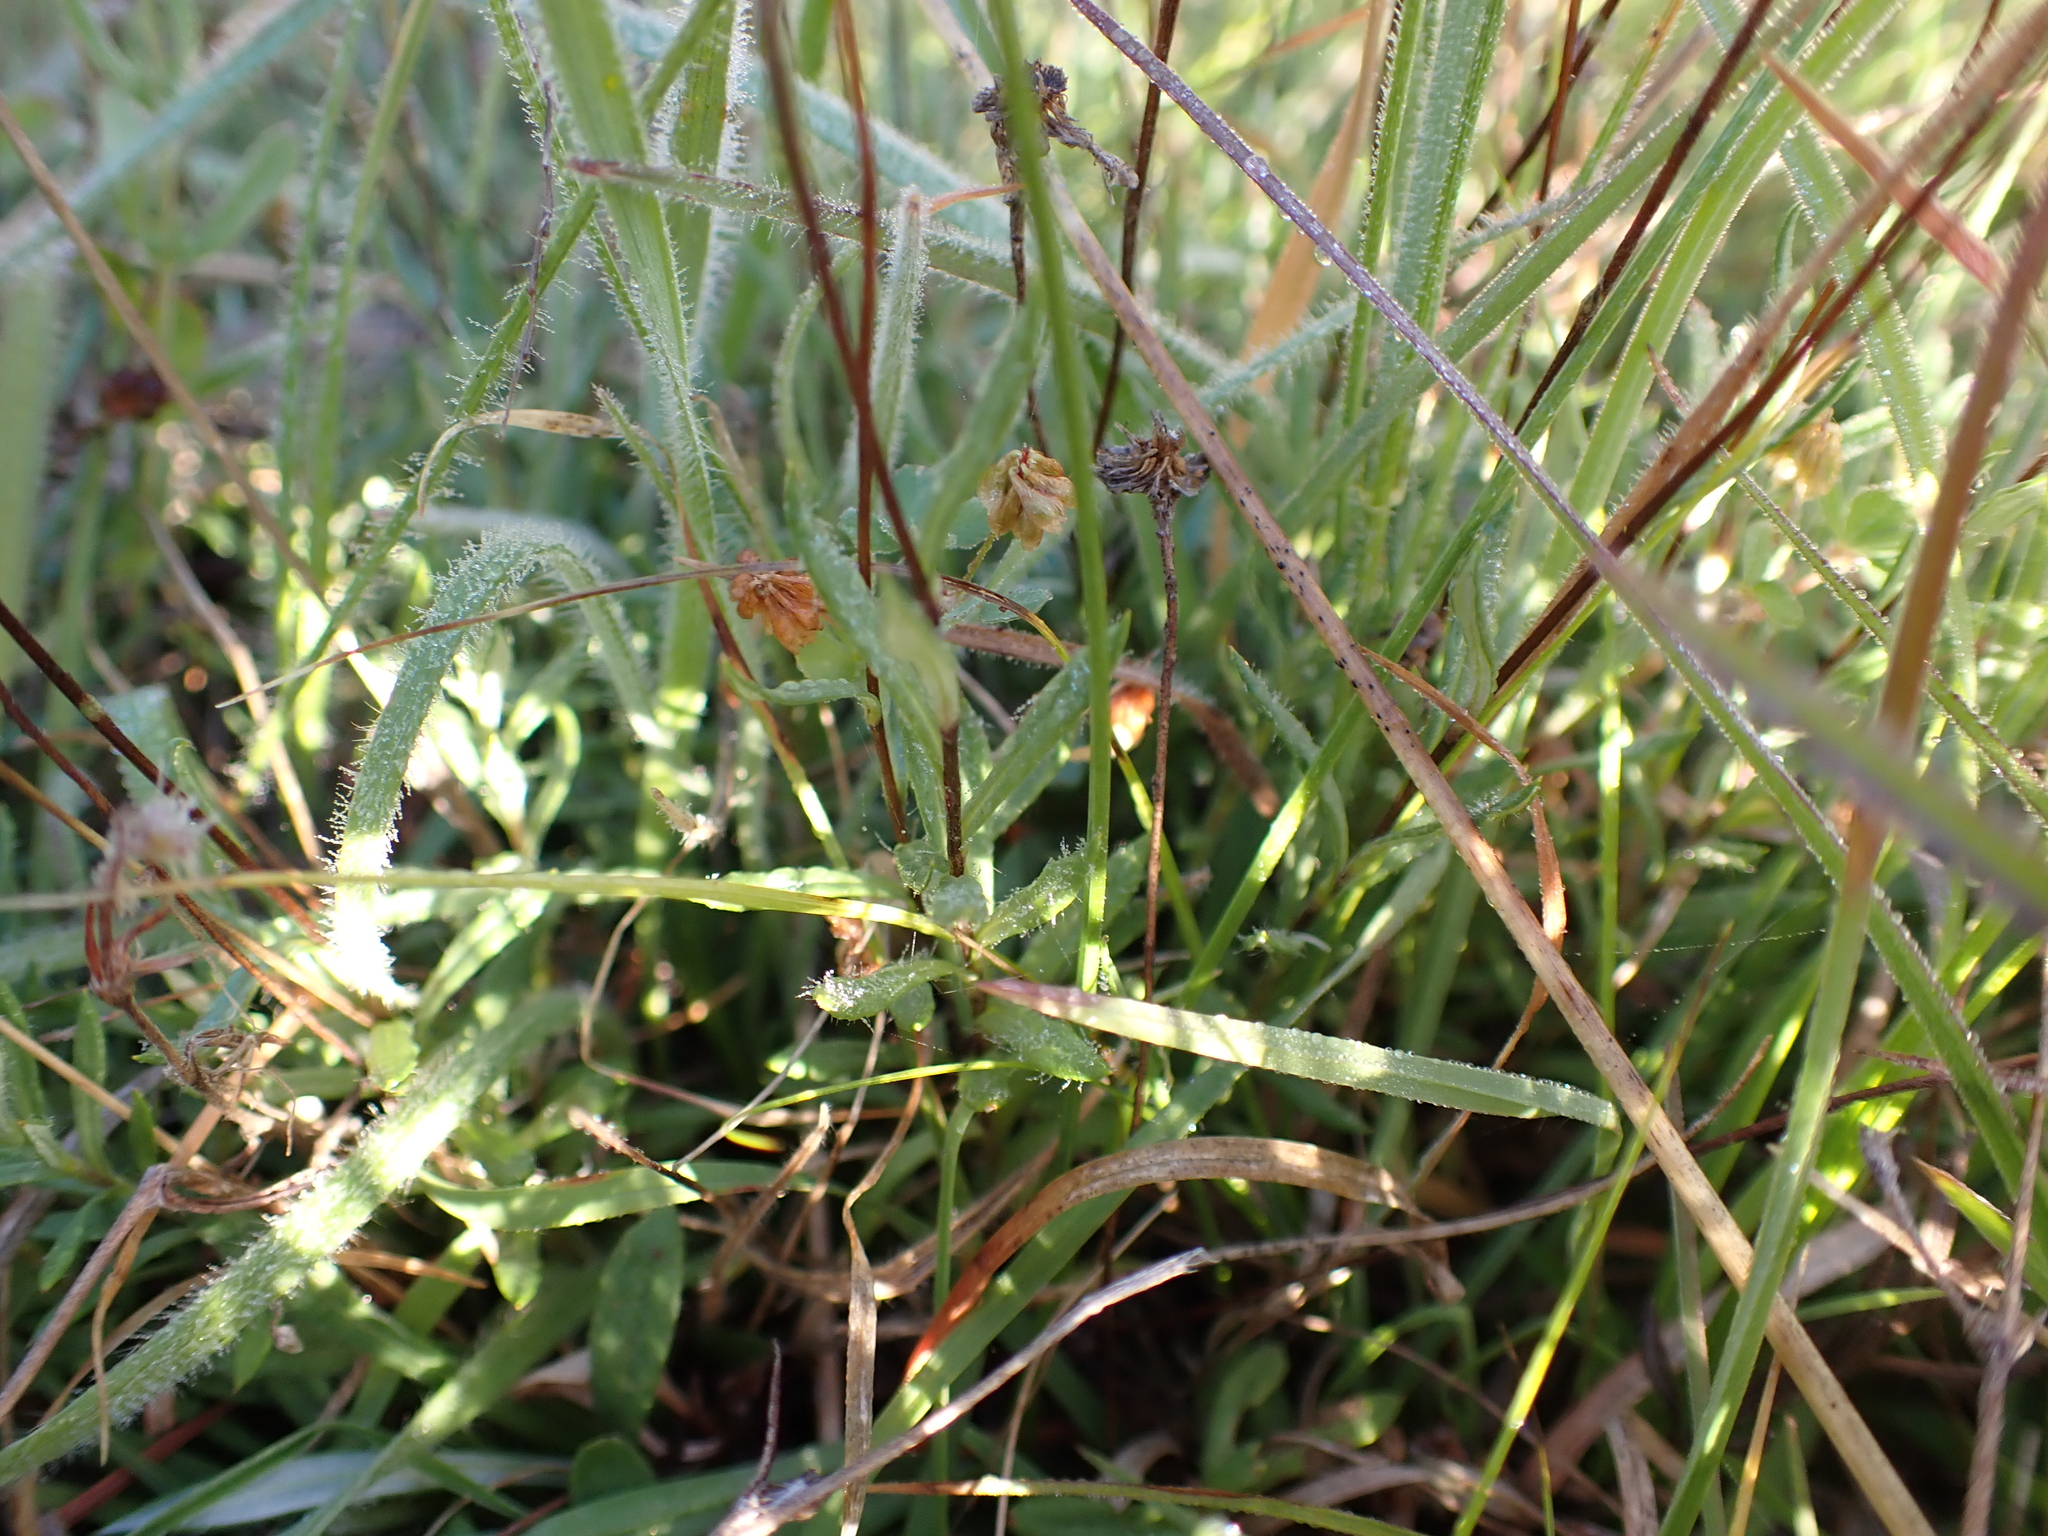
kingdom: Plantae
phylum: Tracheophyta
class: Magnoliopsida
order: Asterales
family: Asteraceae
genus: Leptorhynchos
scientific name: Leptorhynchos squamatus
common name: Scaly-buttons
